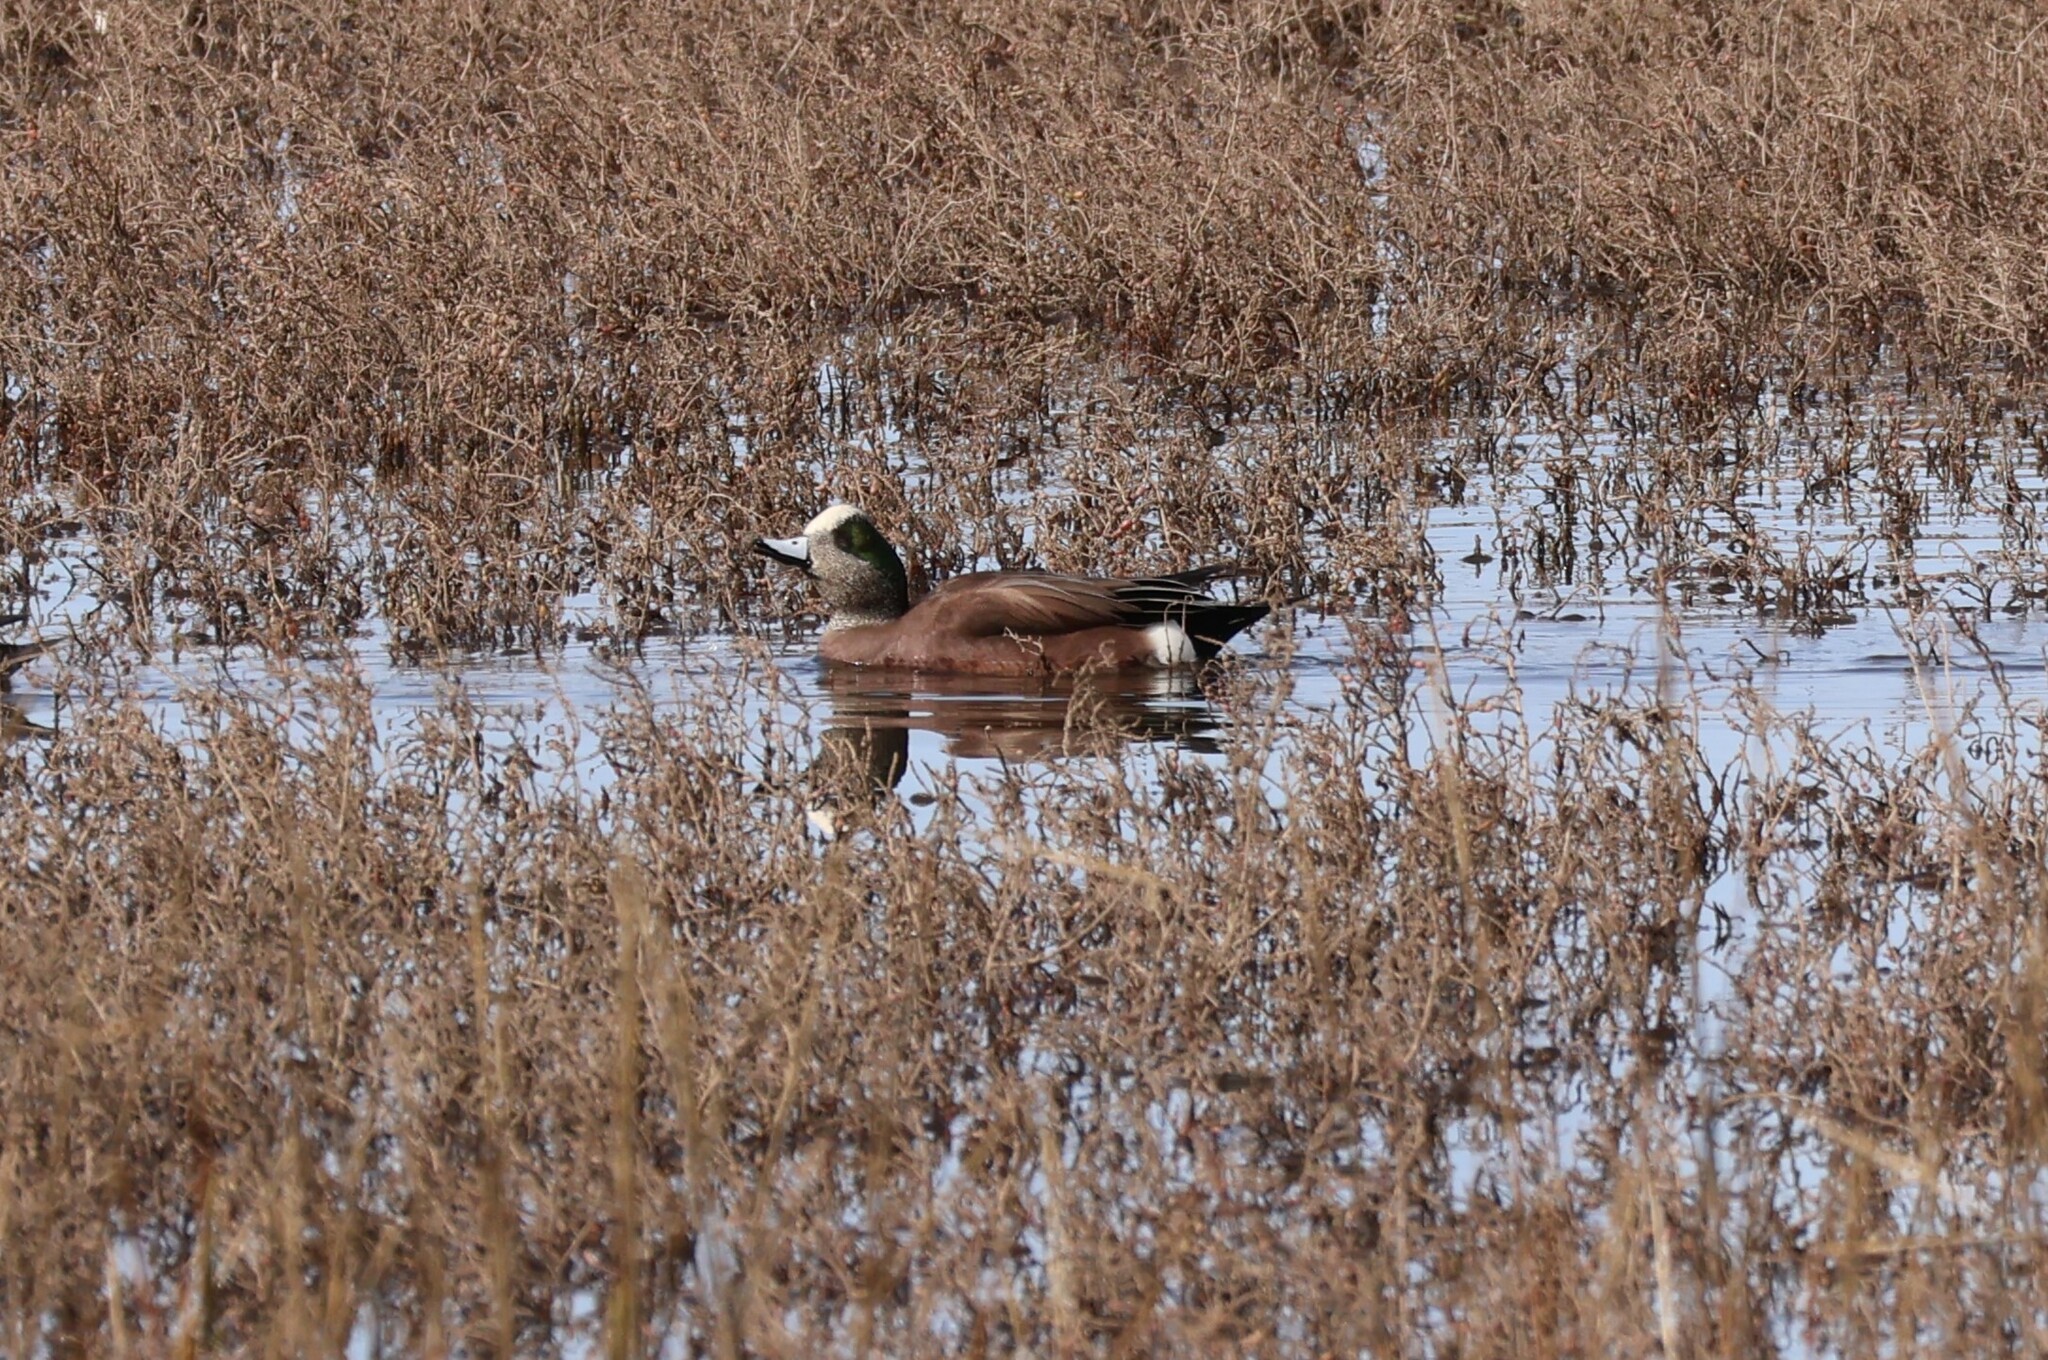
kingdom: Animalia
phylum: Chordata
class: Aves
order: Anseriformes
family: Anatidae
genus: Mareca
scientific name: Mareca americana
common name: American wigeon
